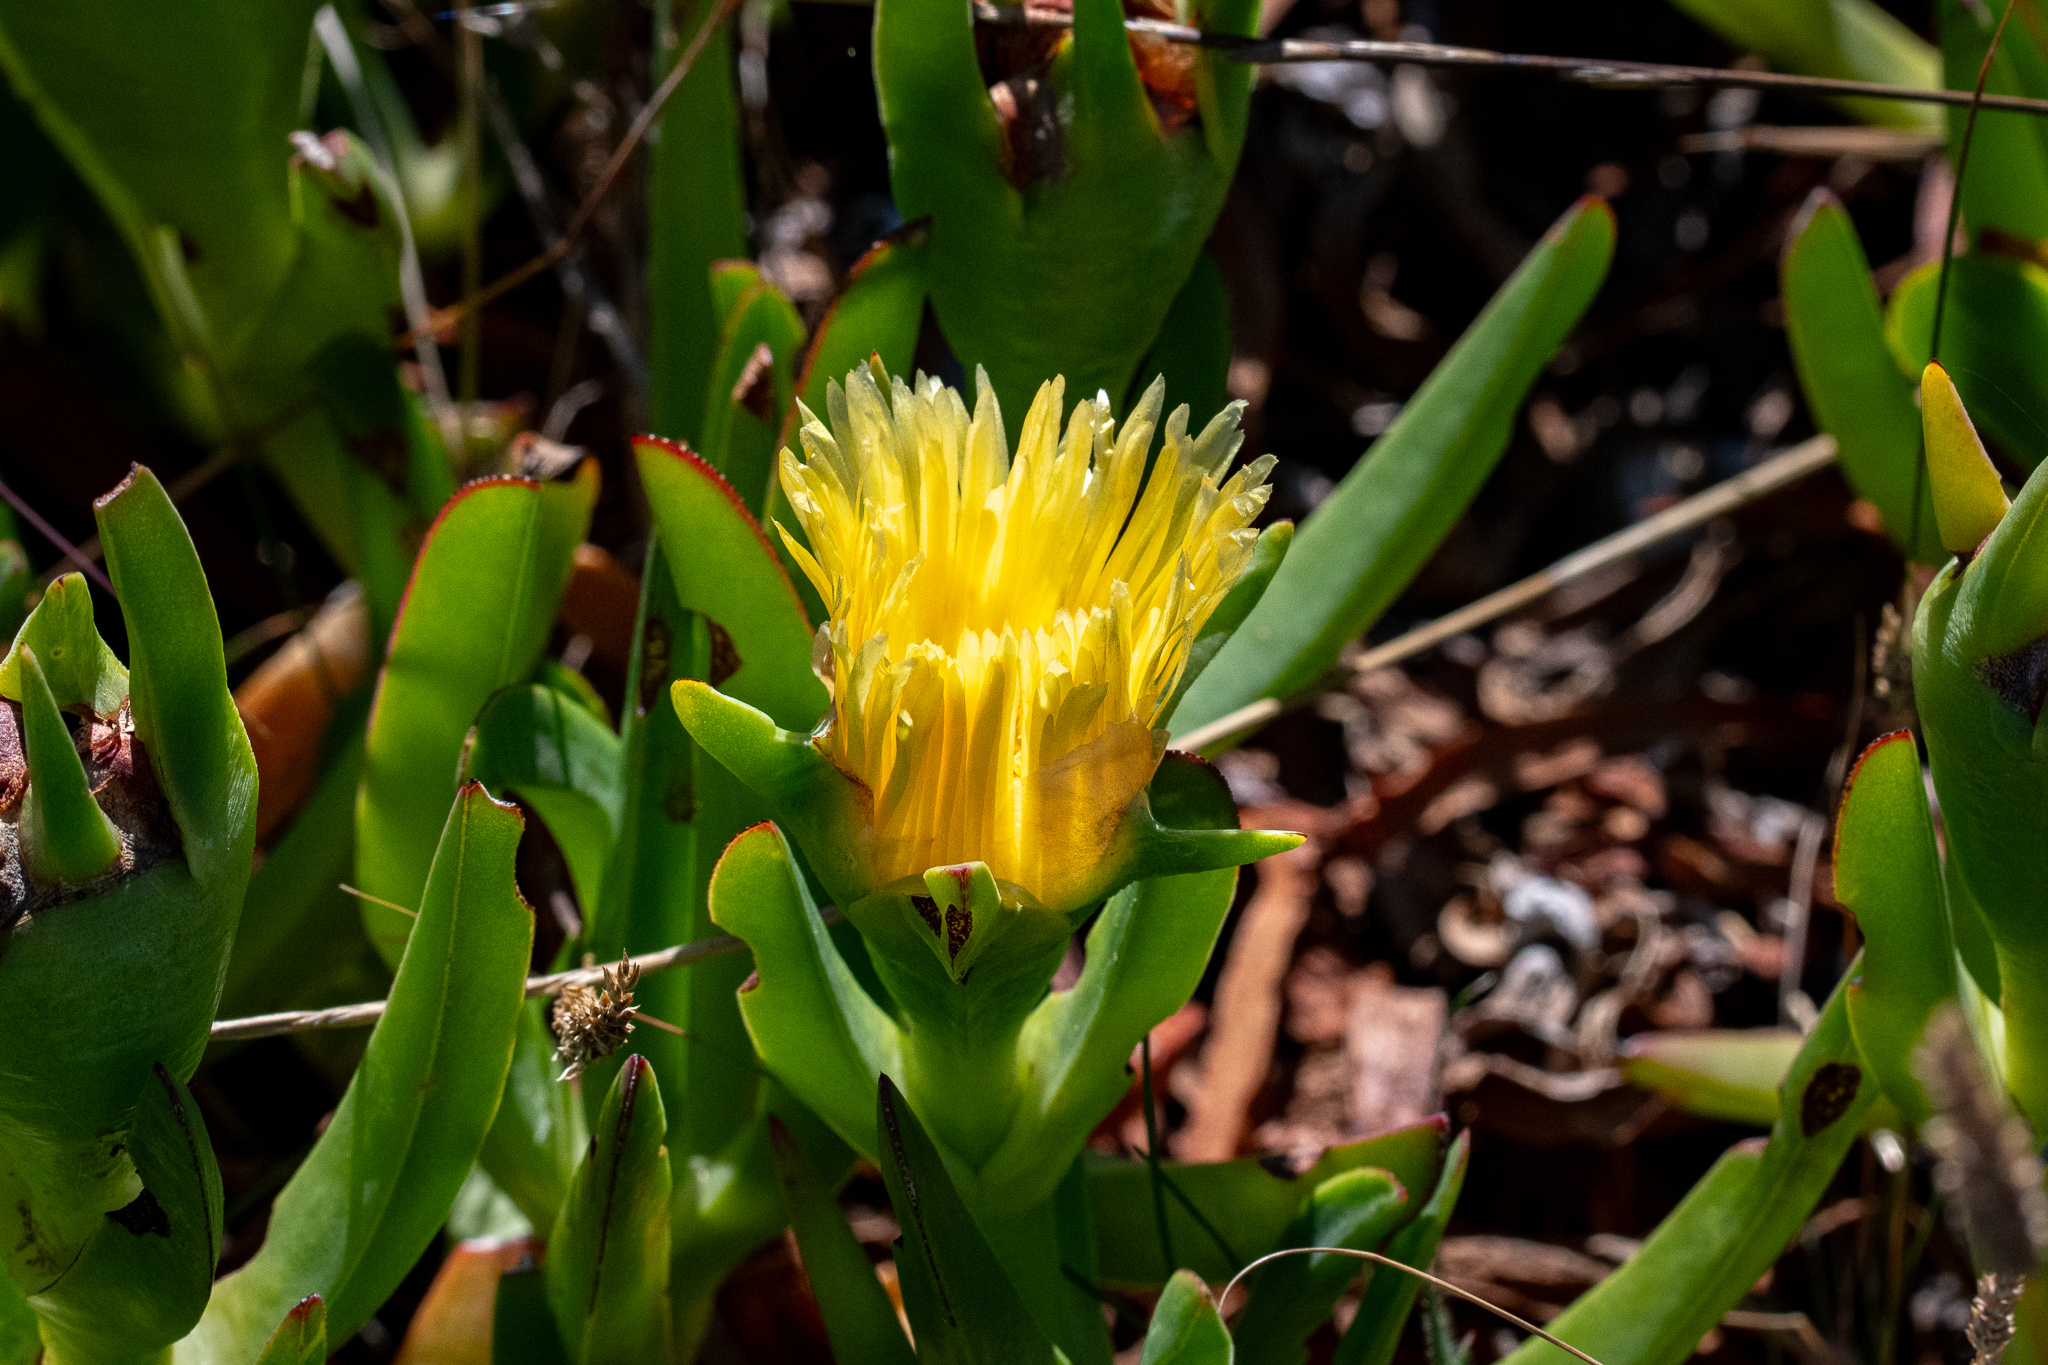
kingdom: Plantae
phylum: Tracheophyta
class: Magnoliopsida
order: Caryophyllales
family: Aizoaceae
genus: Carpobrotus
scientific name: Carpobrotus edulis
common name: Hottentot-fig
